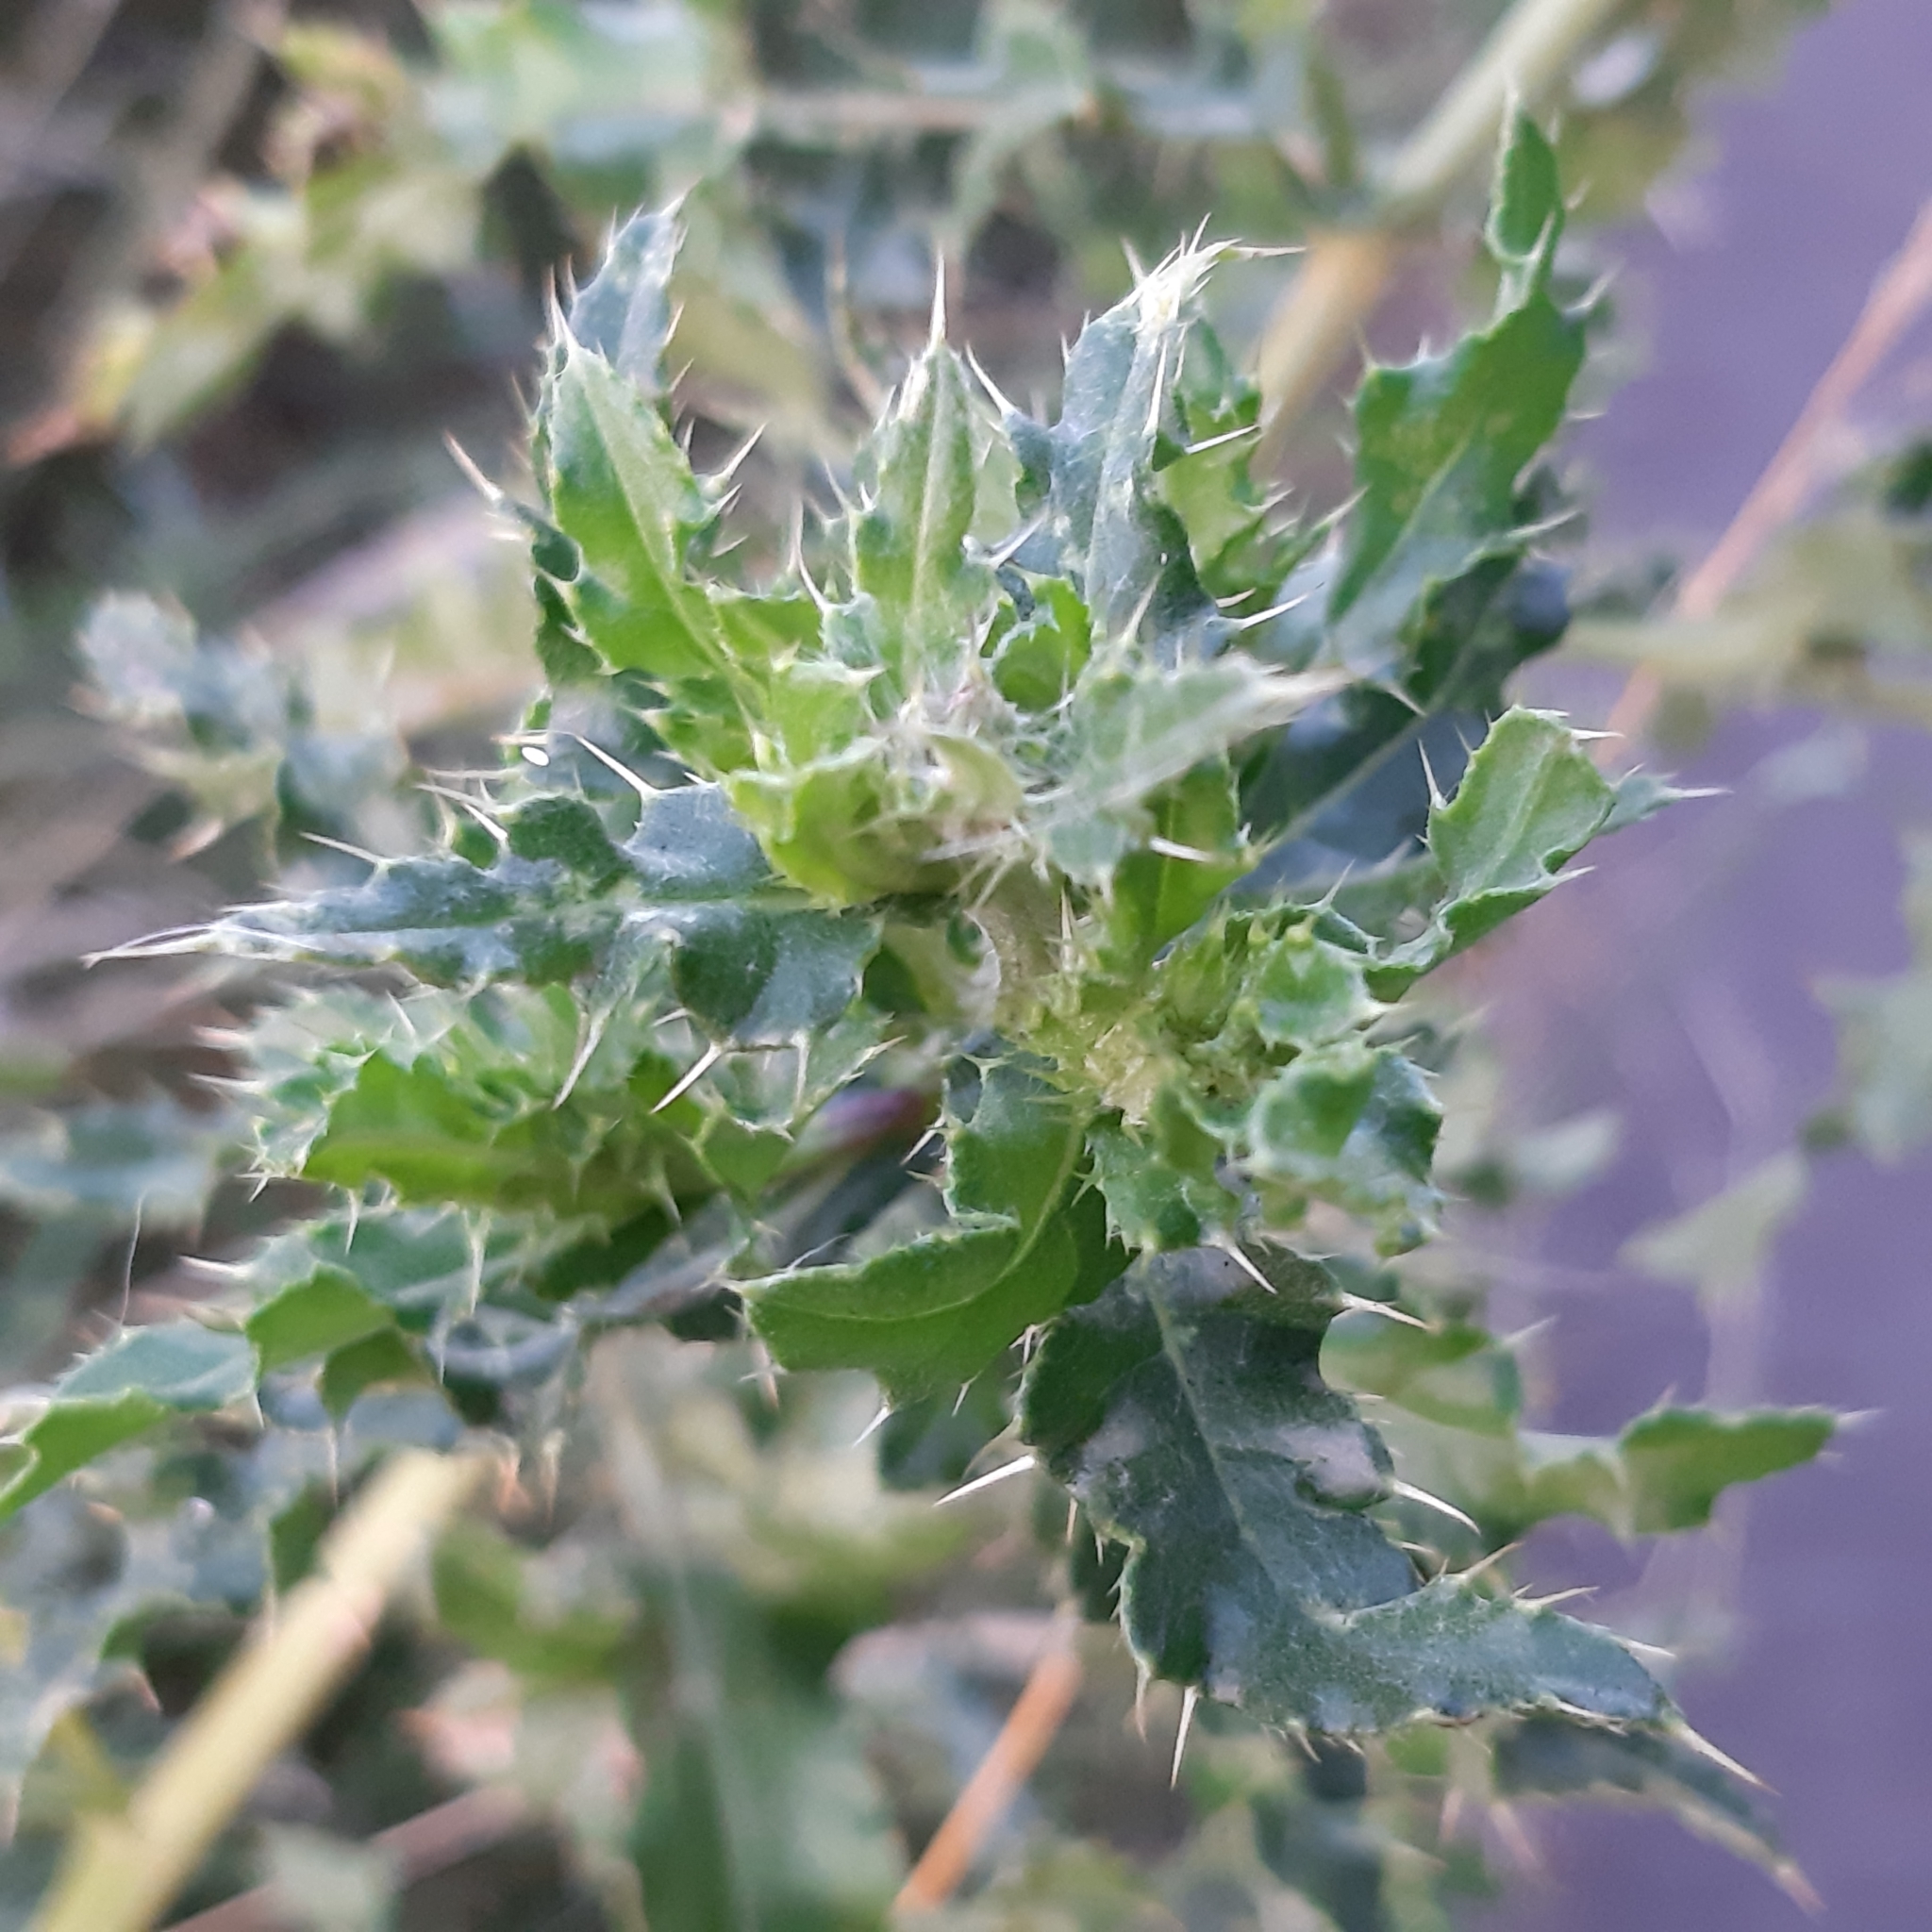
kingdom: Plantae
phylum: Tracheophyta
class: Magnoliopsida
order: Asterales
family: Asteraceae
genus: Cirsium
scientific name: Cirsium arvense
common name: Creeping thistle
